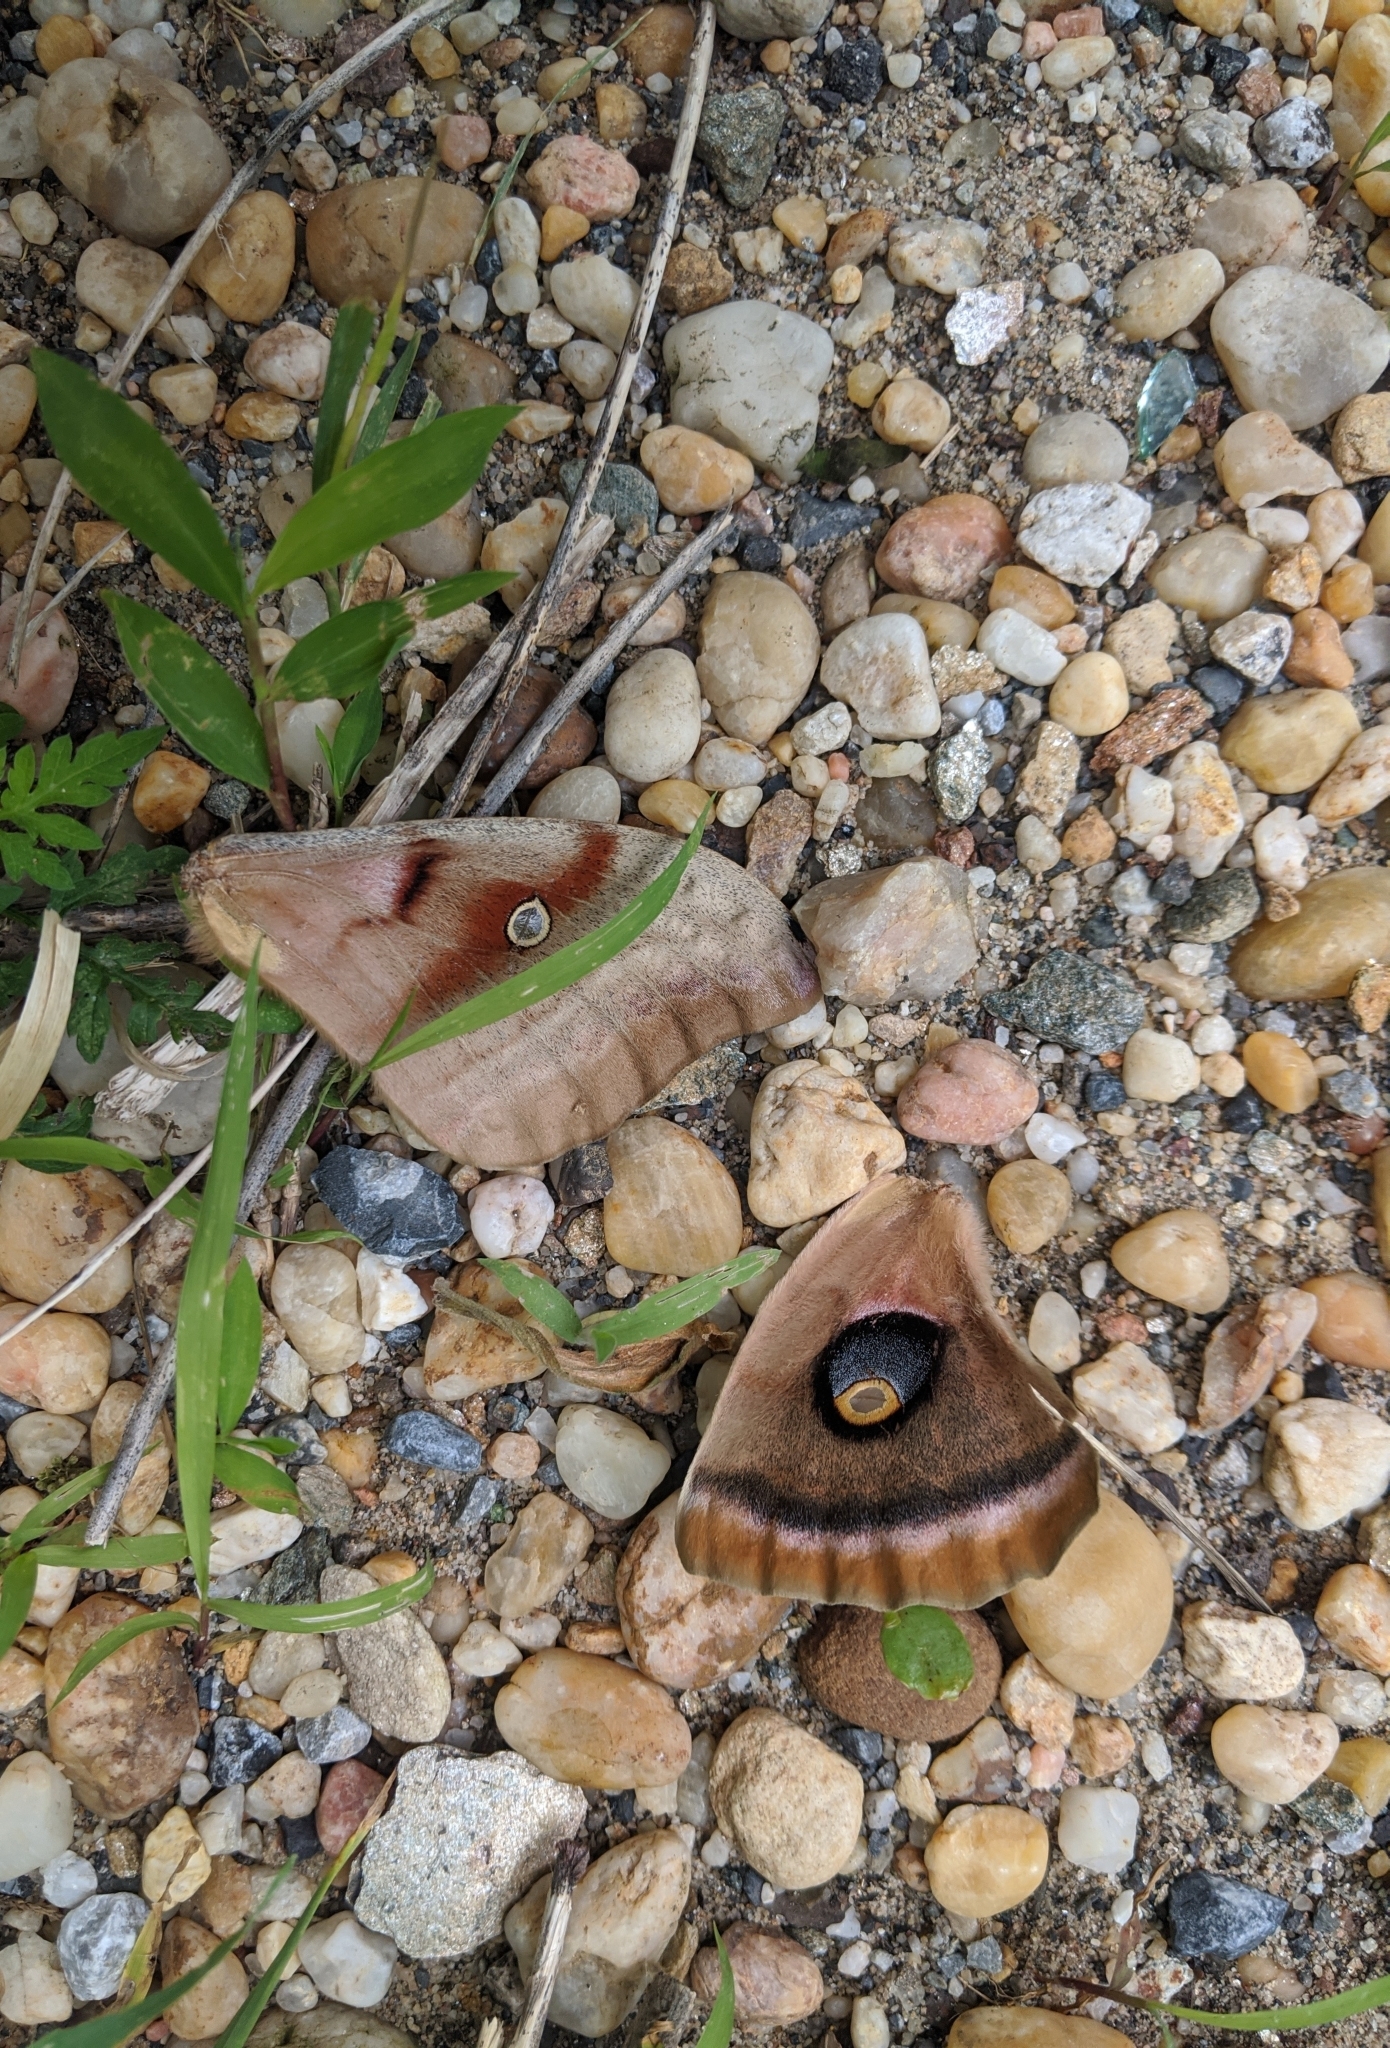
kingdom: Animalia
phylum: Arthropoda
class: Insecta
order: Lepidoptera
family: Saturniidae
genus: Antheraea
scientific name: Antheraea polyphemus
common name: Polyphemus moth
